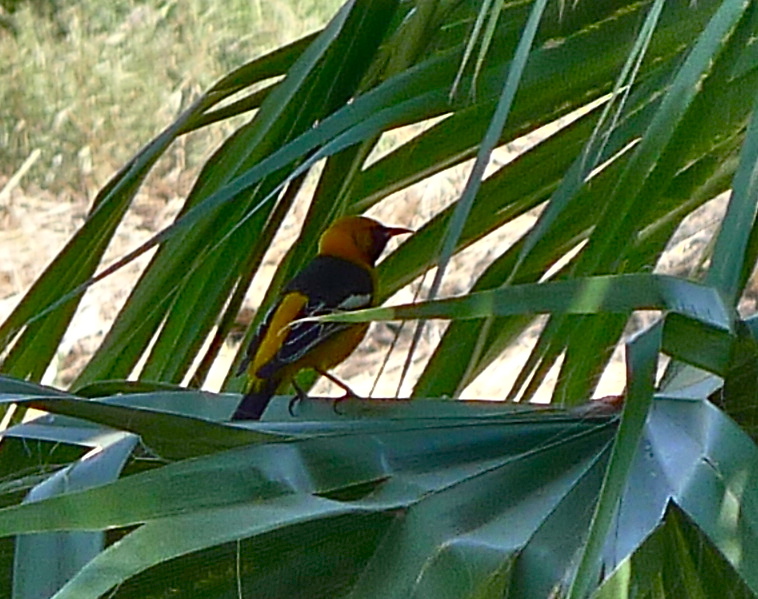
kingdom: Animalia
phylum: Chordata
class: Aves
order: Passeriformes
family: Icteridae
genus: Icterus
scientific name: Icterus cucullatus
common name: Hooded oriole
